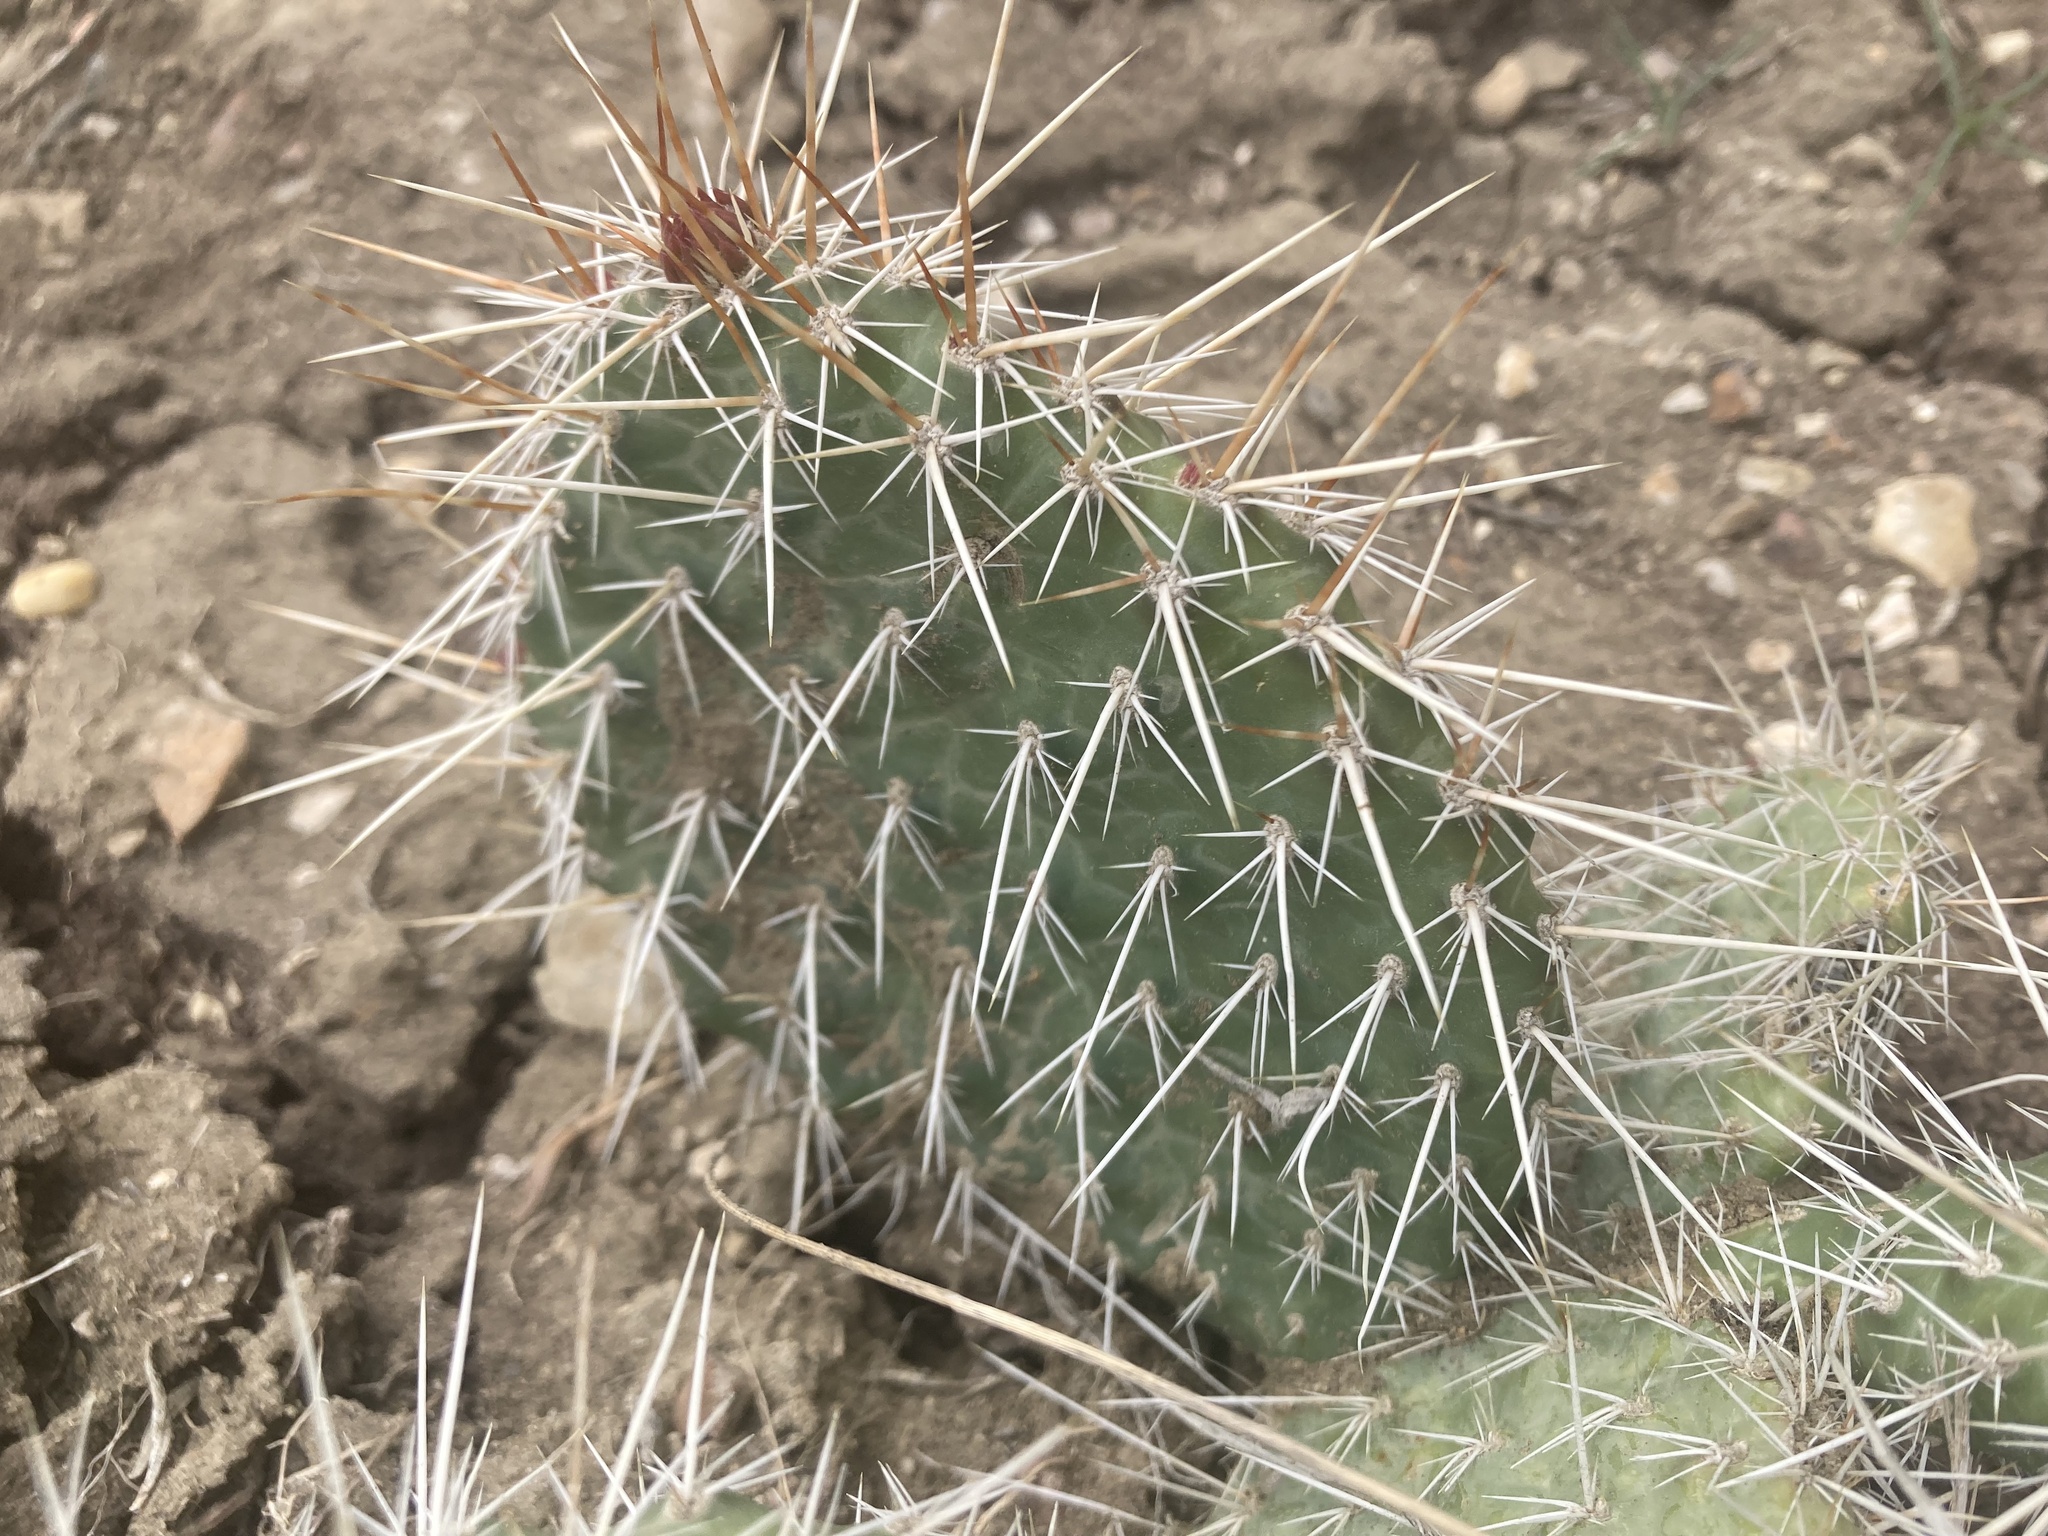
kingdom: Plantae
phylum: Tracheophyta
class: Magnoliopsida
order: Caryophyllales
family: Cactaceae
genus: Opuntia
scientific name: Opuntia polyacantha
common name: Plains prickly-pear
